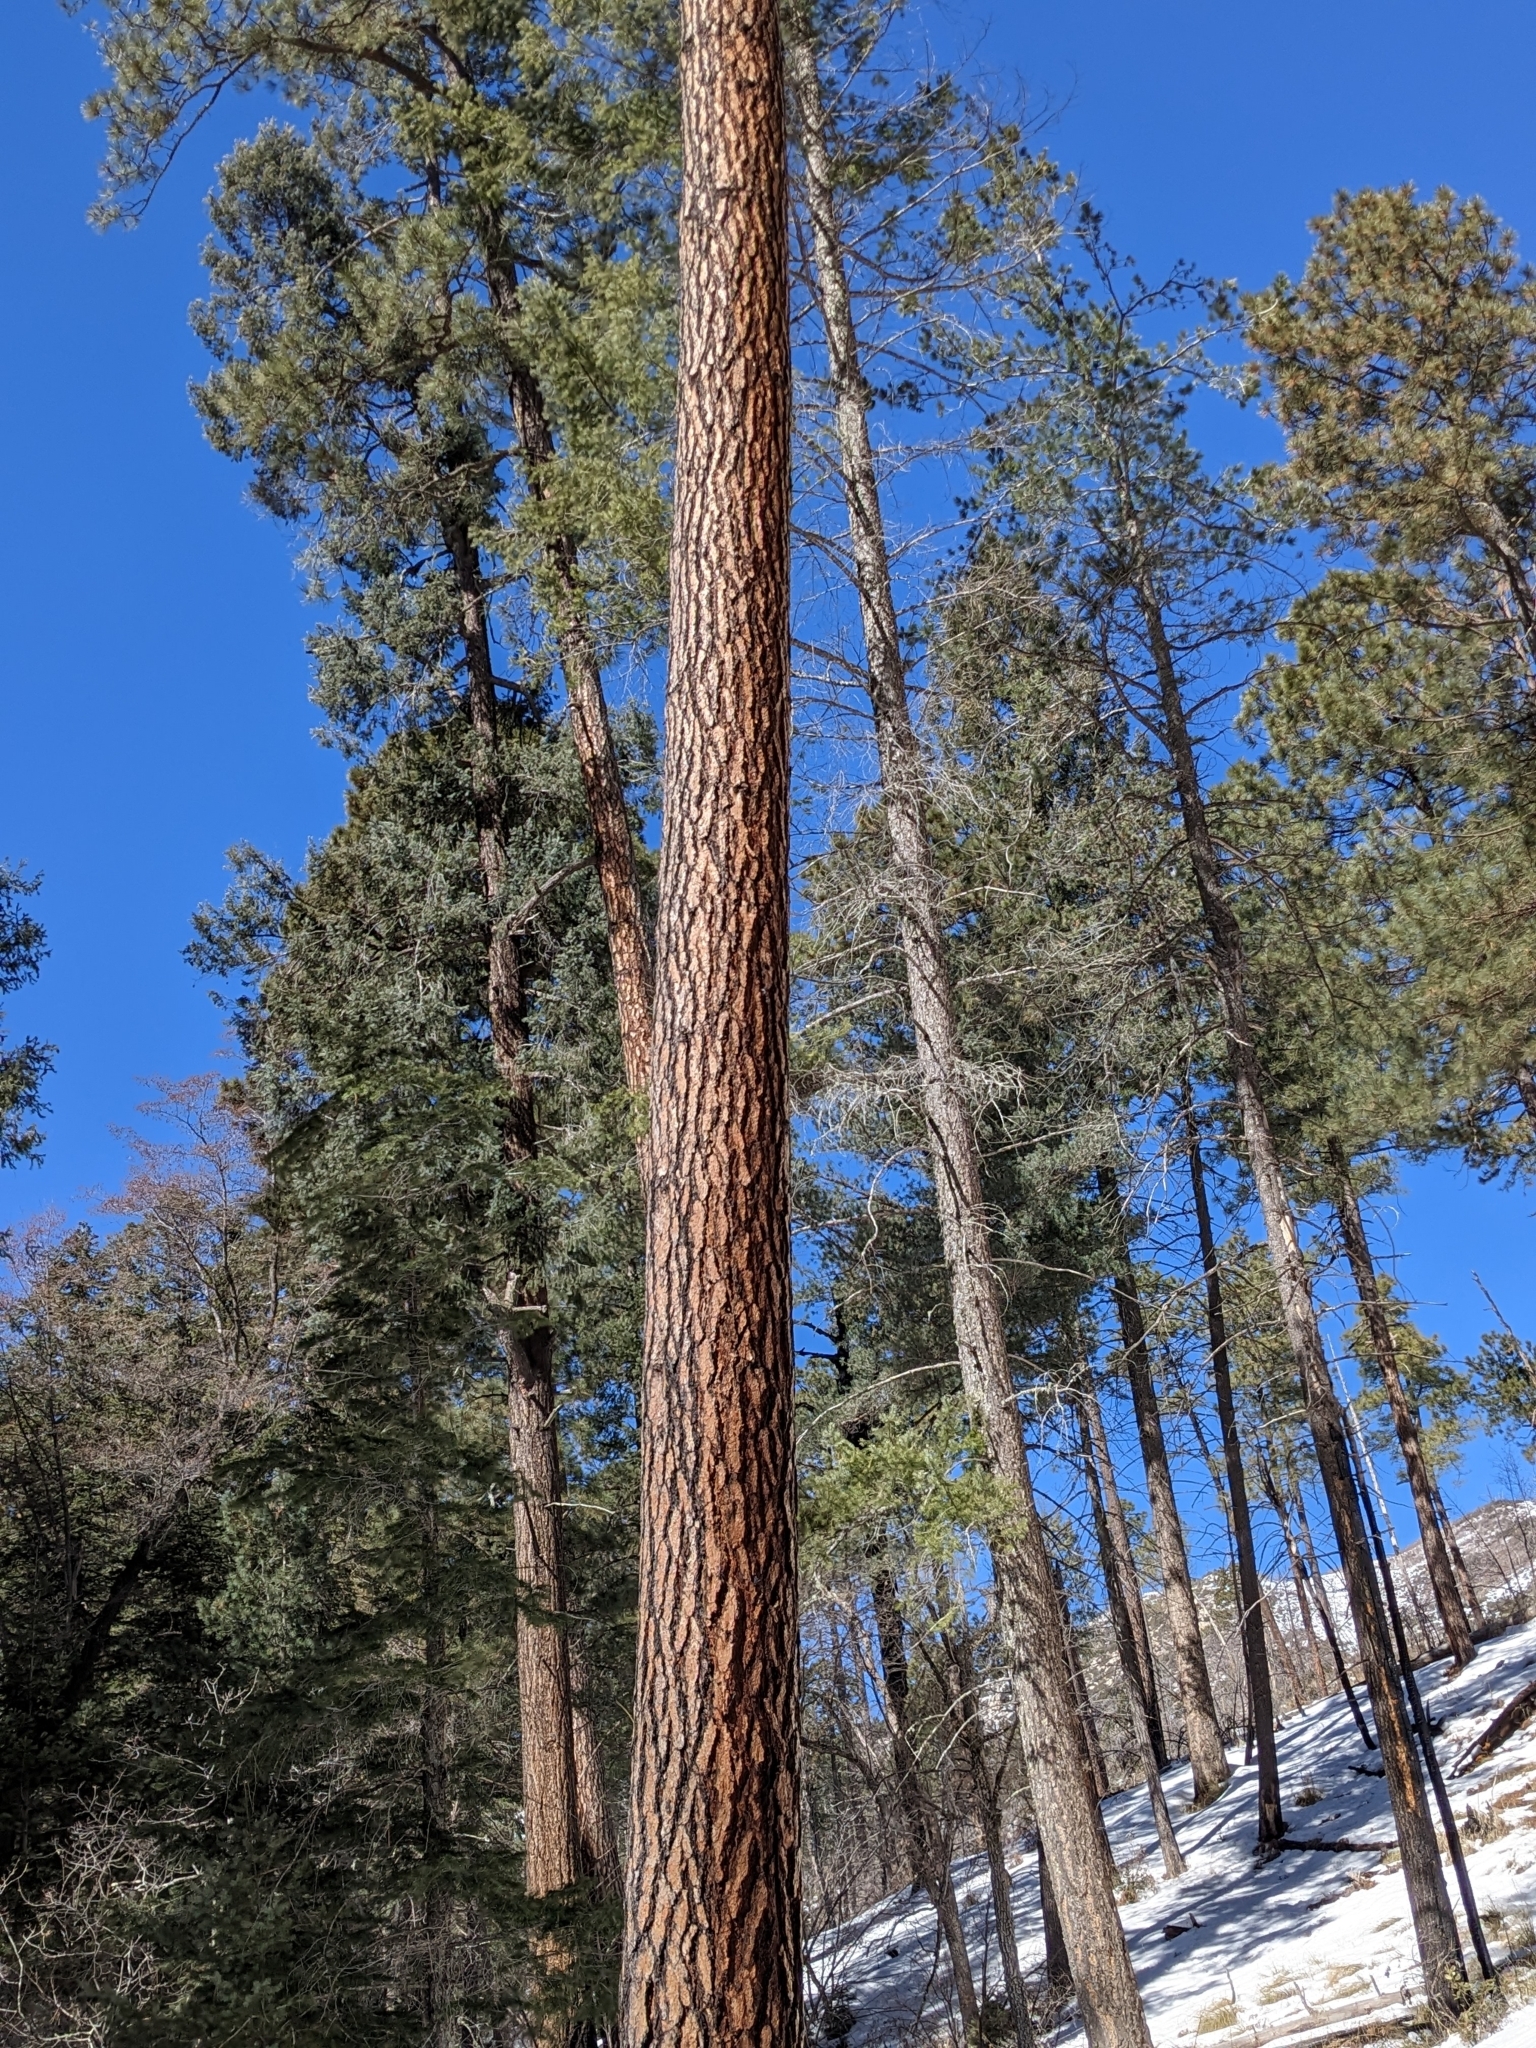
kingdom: Plantae
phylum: Tracheophyta
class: Pinopsida
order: Pinales
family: Pinaceae
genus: Pinus
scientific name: Pinus ponderosa
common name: Western yellow-pine
